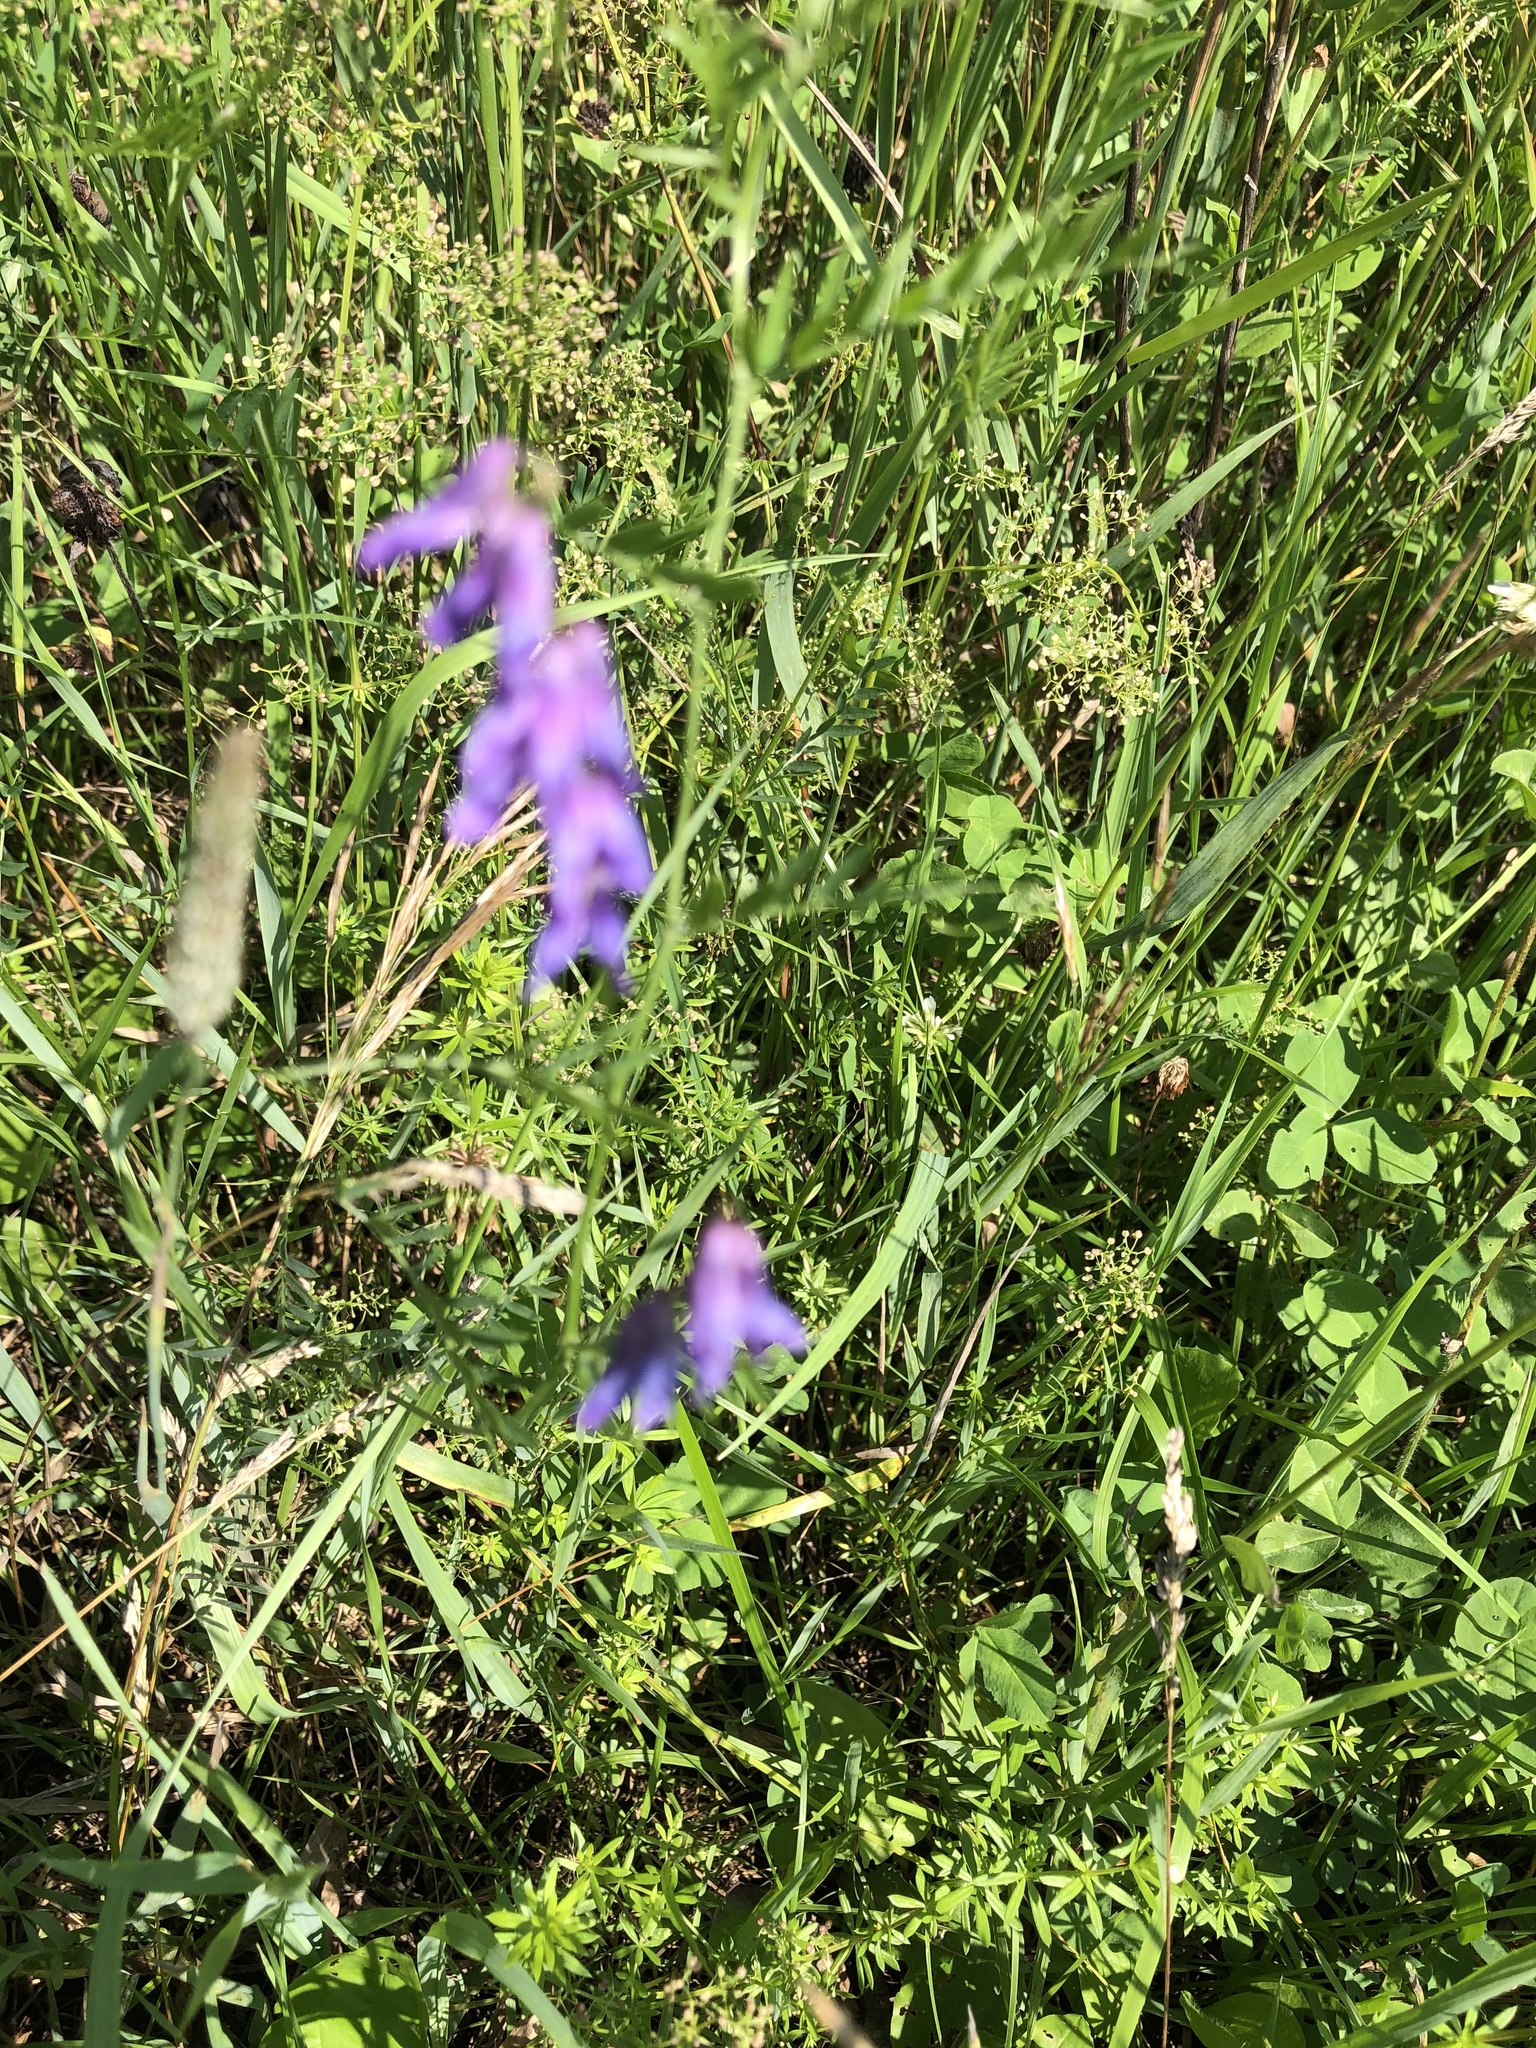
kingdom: Plantae
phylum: Tracheophyta
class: Magnoliopsida
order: Fabales
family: Fabaceae
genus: Vicia
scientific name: Vicia cracca
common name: Bird vetch
